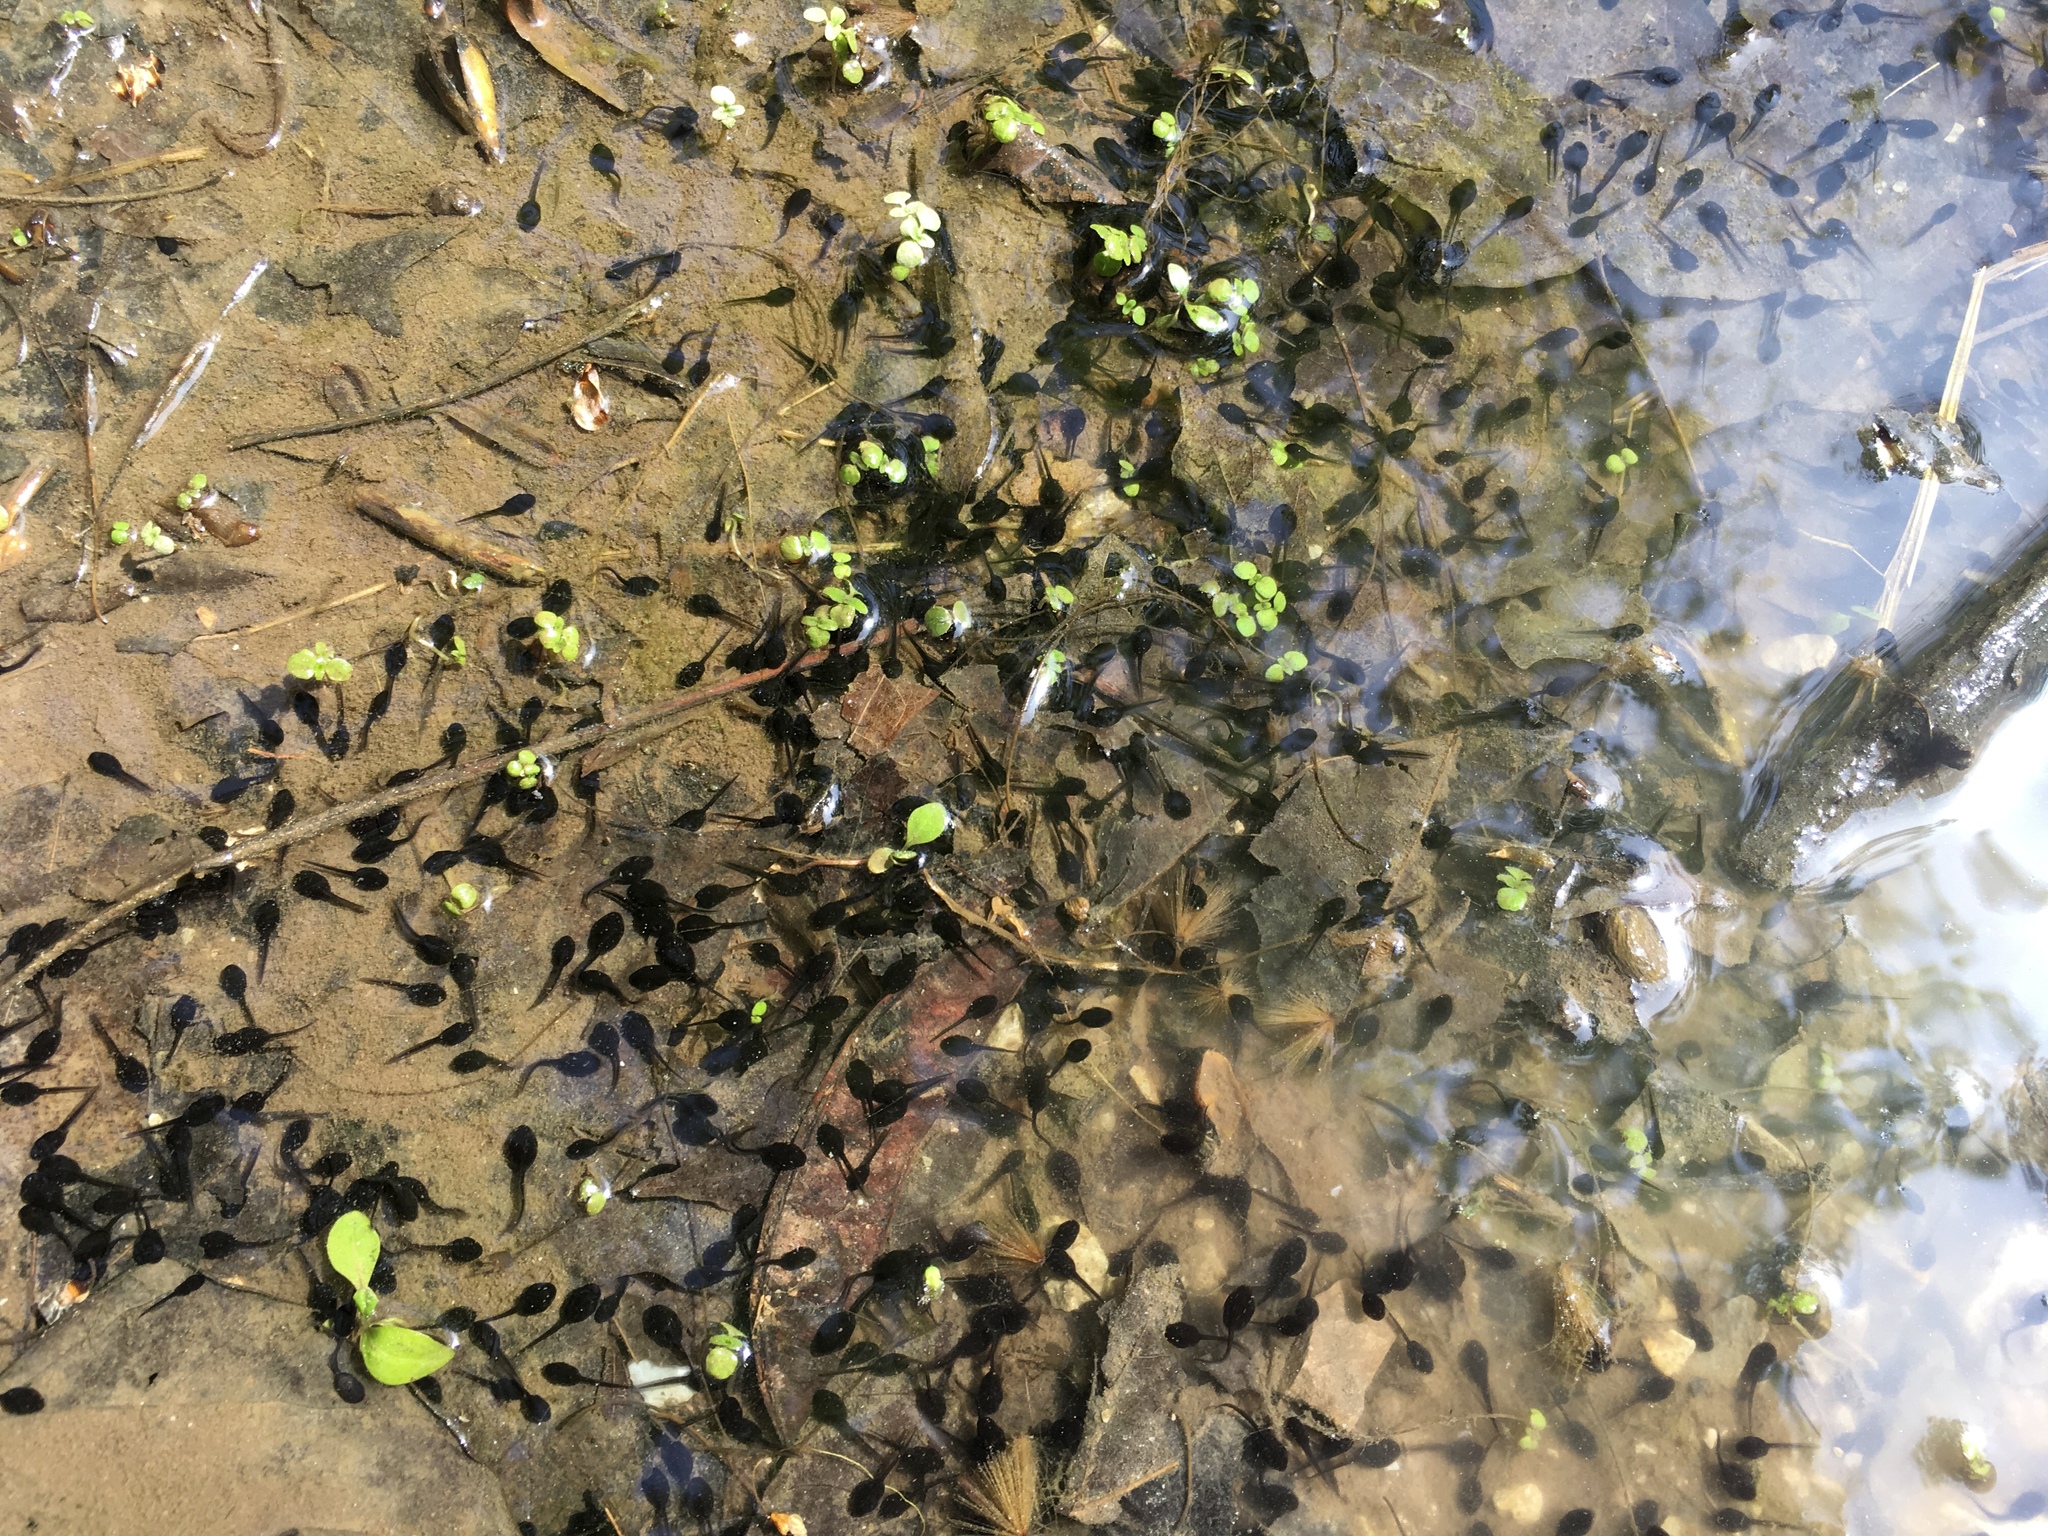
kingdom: Animalia
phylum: Chordata
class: Amphibia
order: Anura
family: Bufonidae
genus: Anaxyrus
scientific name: Anaxyrus americanus
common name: American toad
